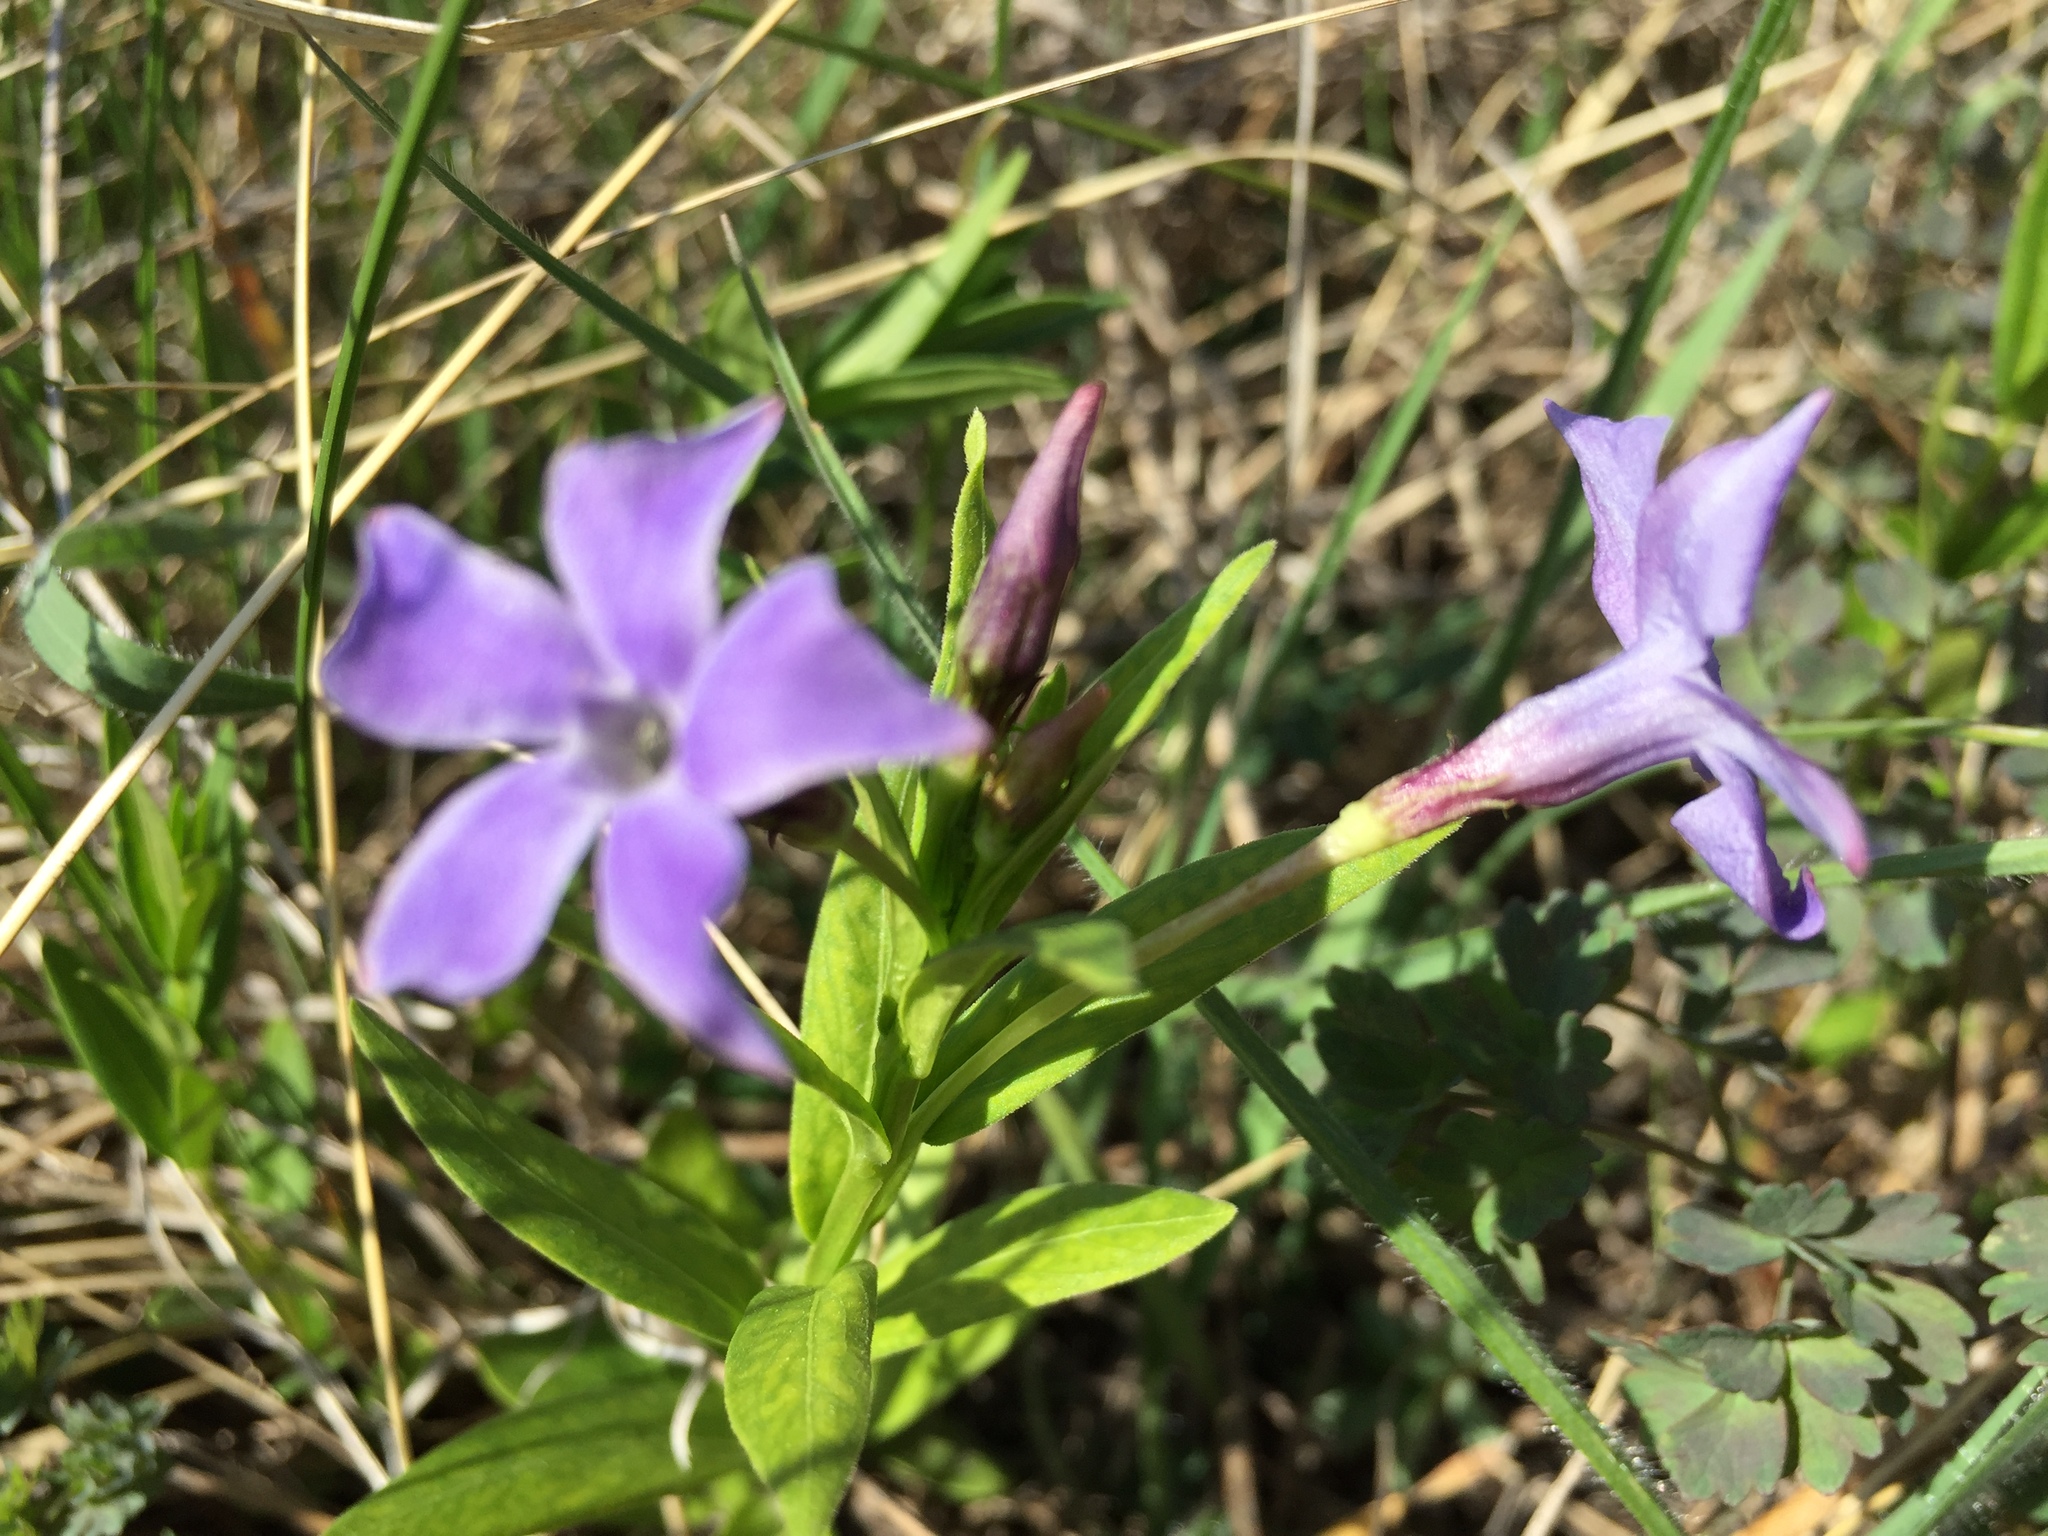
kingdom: Plantae
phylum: Tracheophyta
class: Magnoliopsida
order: Gentianales
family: Apocynaceae
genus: Vinca
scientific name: Vinca herbacea
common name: Herbaceous periwinkle
